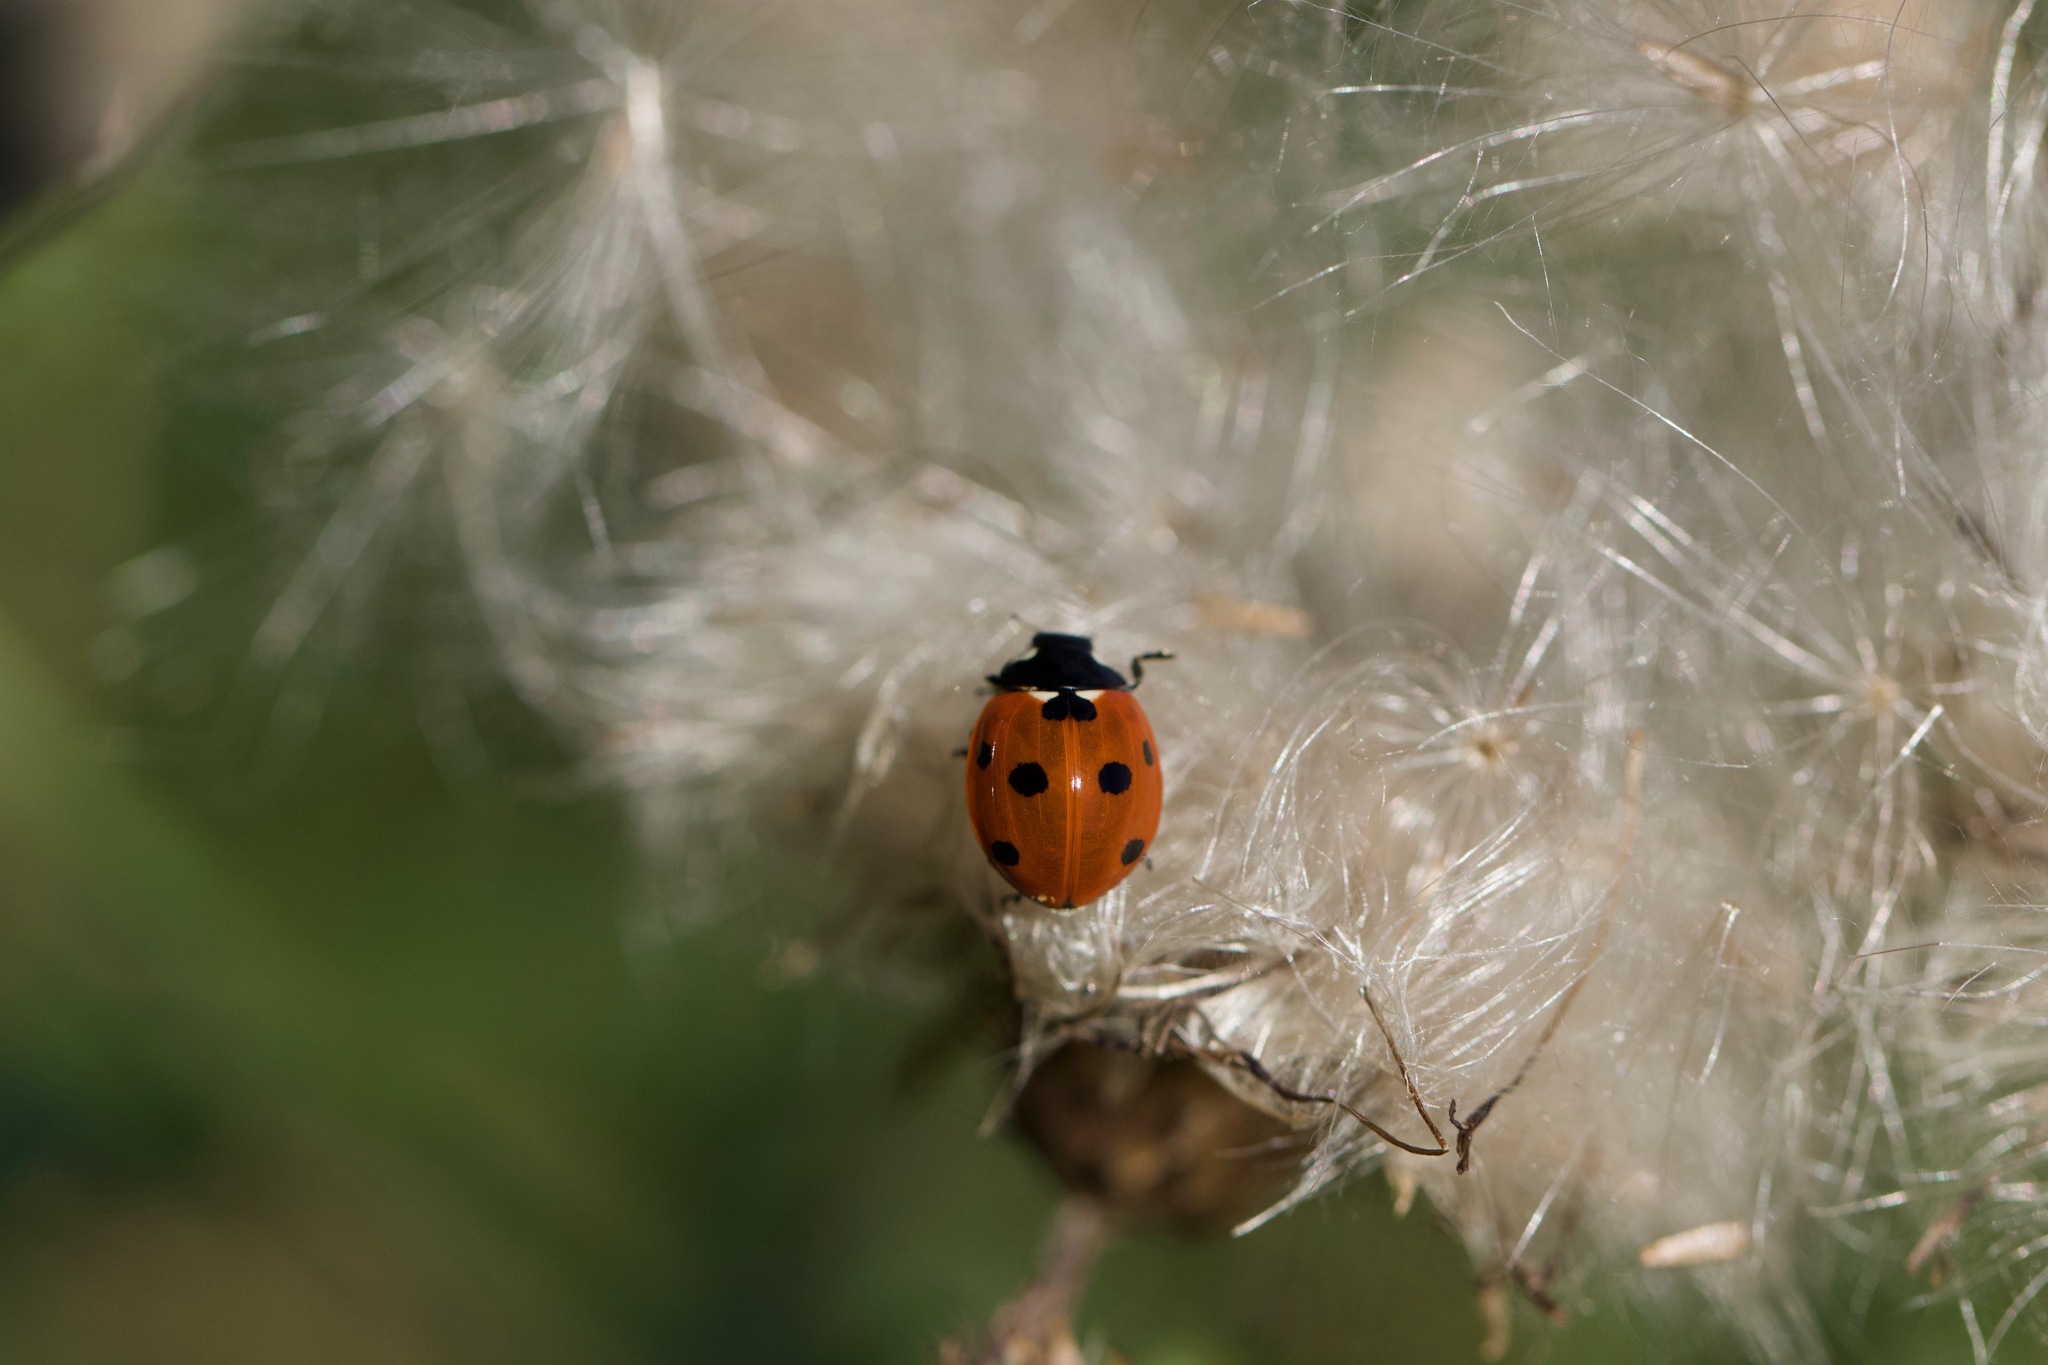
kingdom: Animalia
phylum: Arthropoda
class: Insecta
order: Coleoptera
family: Coccinellidae
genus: Coccinella
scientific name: Coccinella septempunctata
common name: Sevenspotted lady beetle
